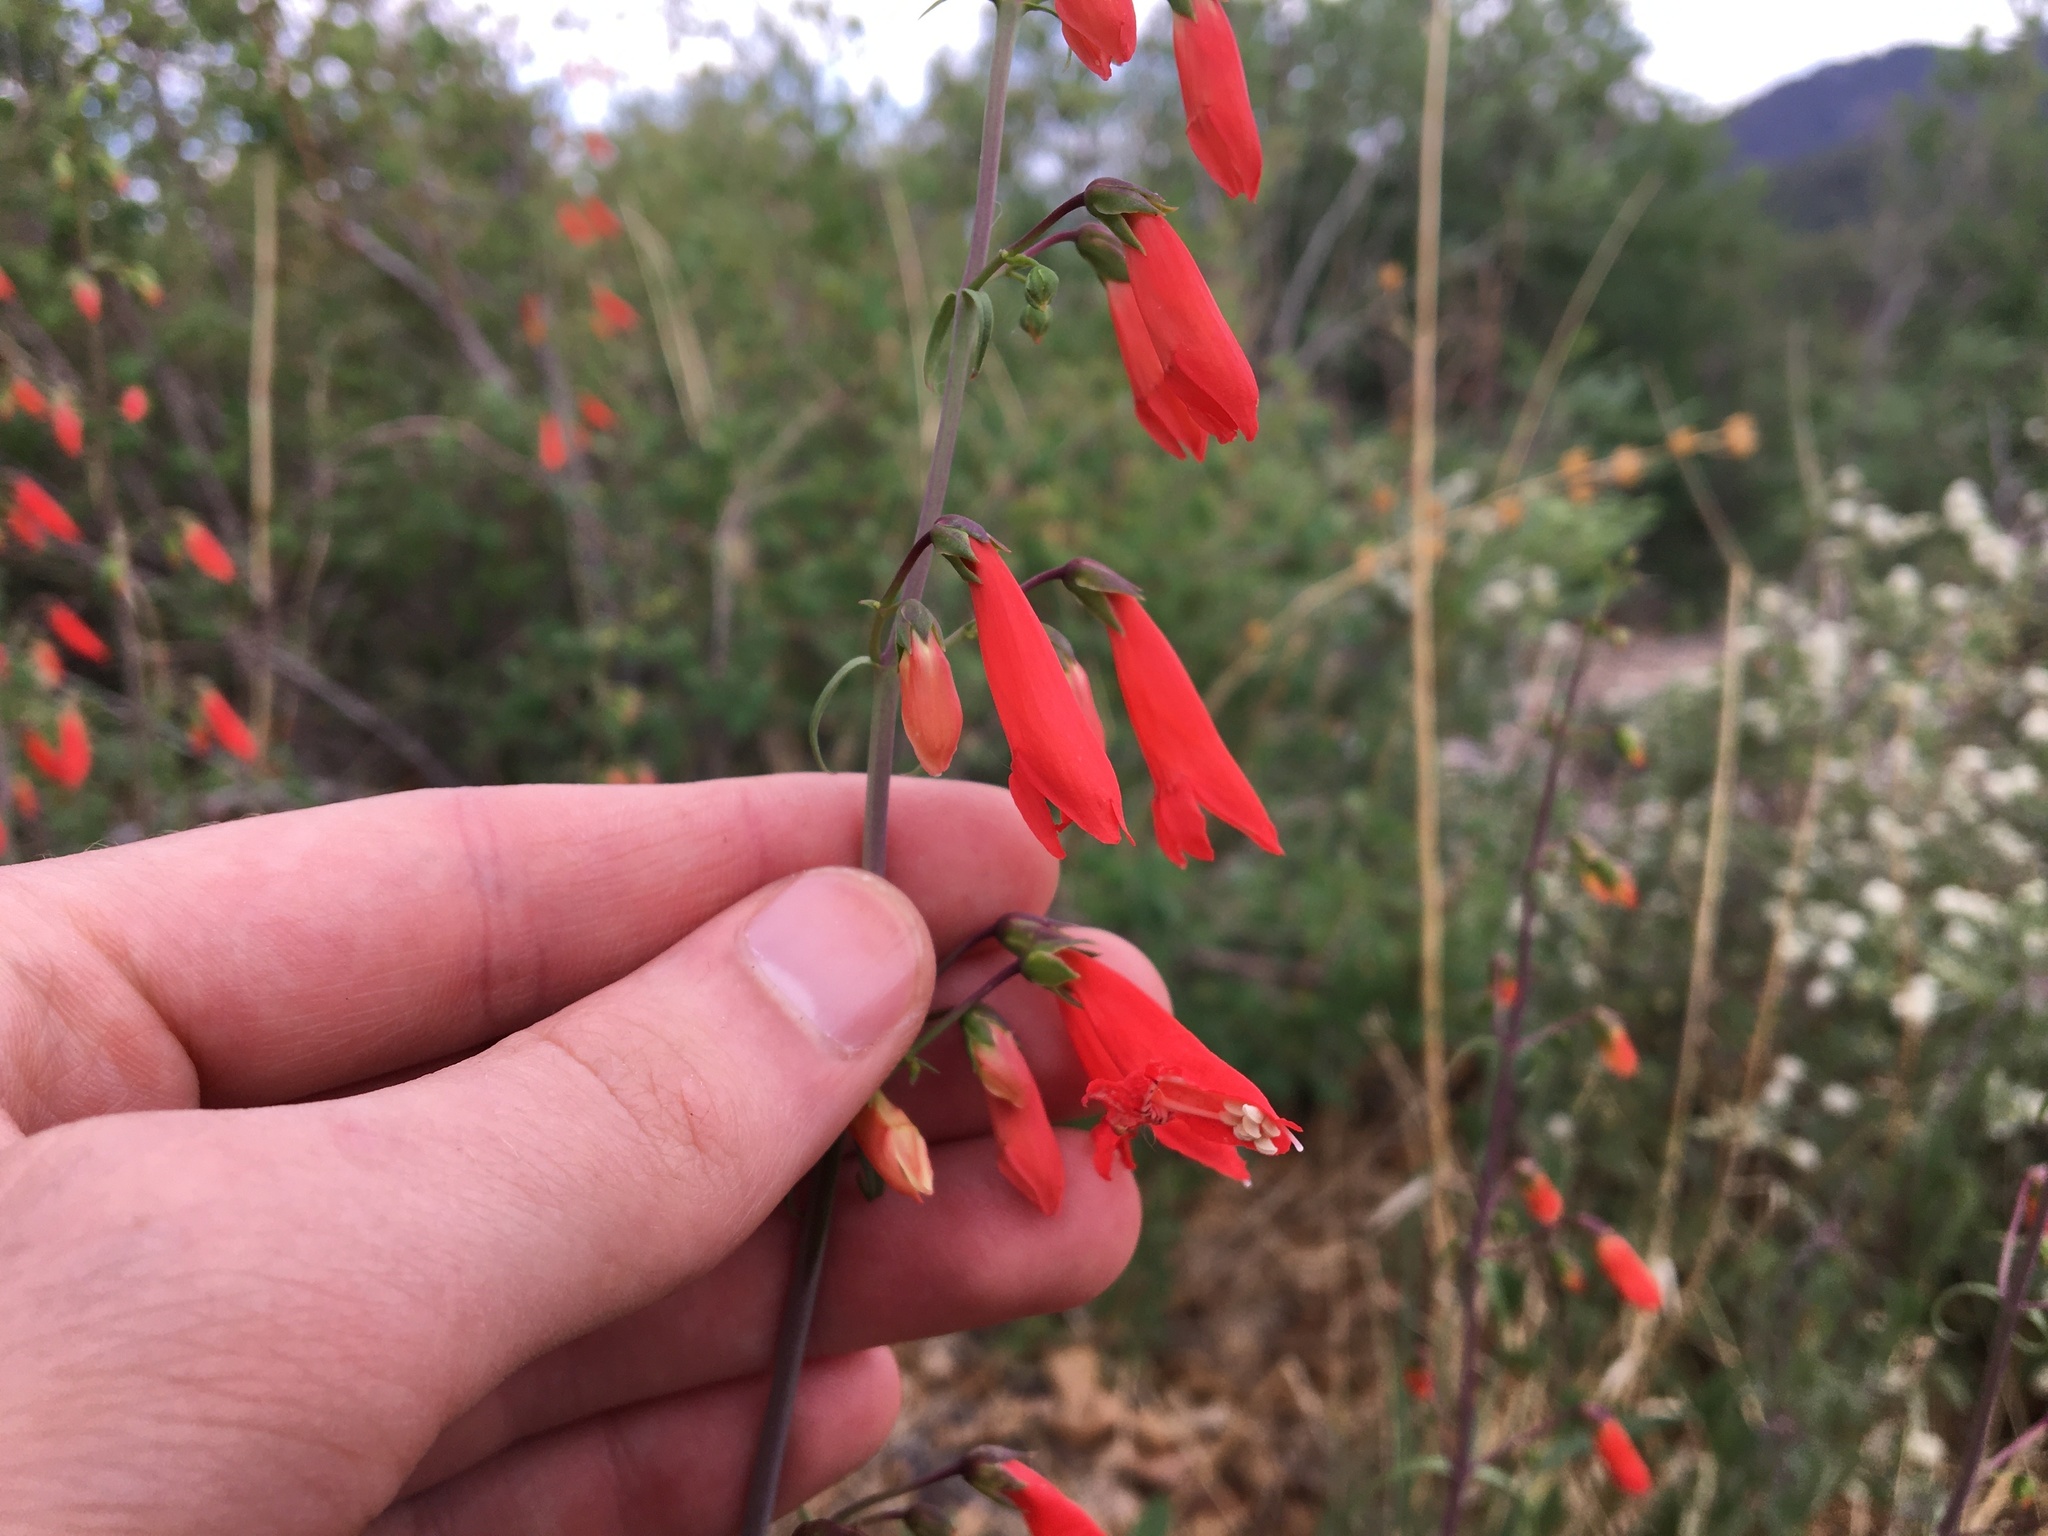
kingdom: Plantae
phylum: Tracheophyta
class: Magnoliopsida
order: Lamiales
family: Plantaginaceae
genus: Penstemon
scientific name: Penstemon barbatus
